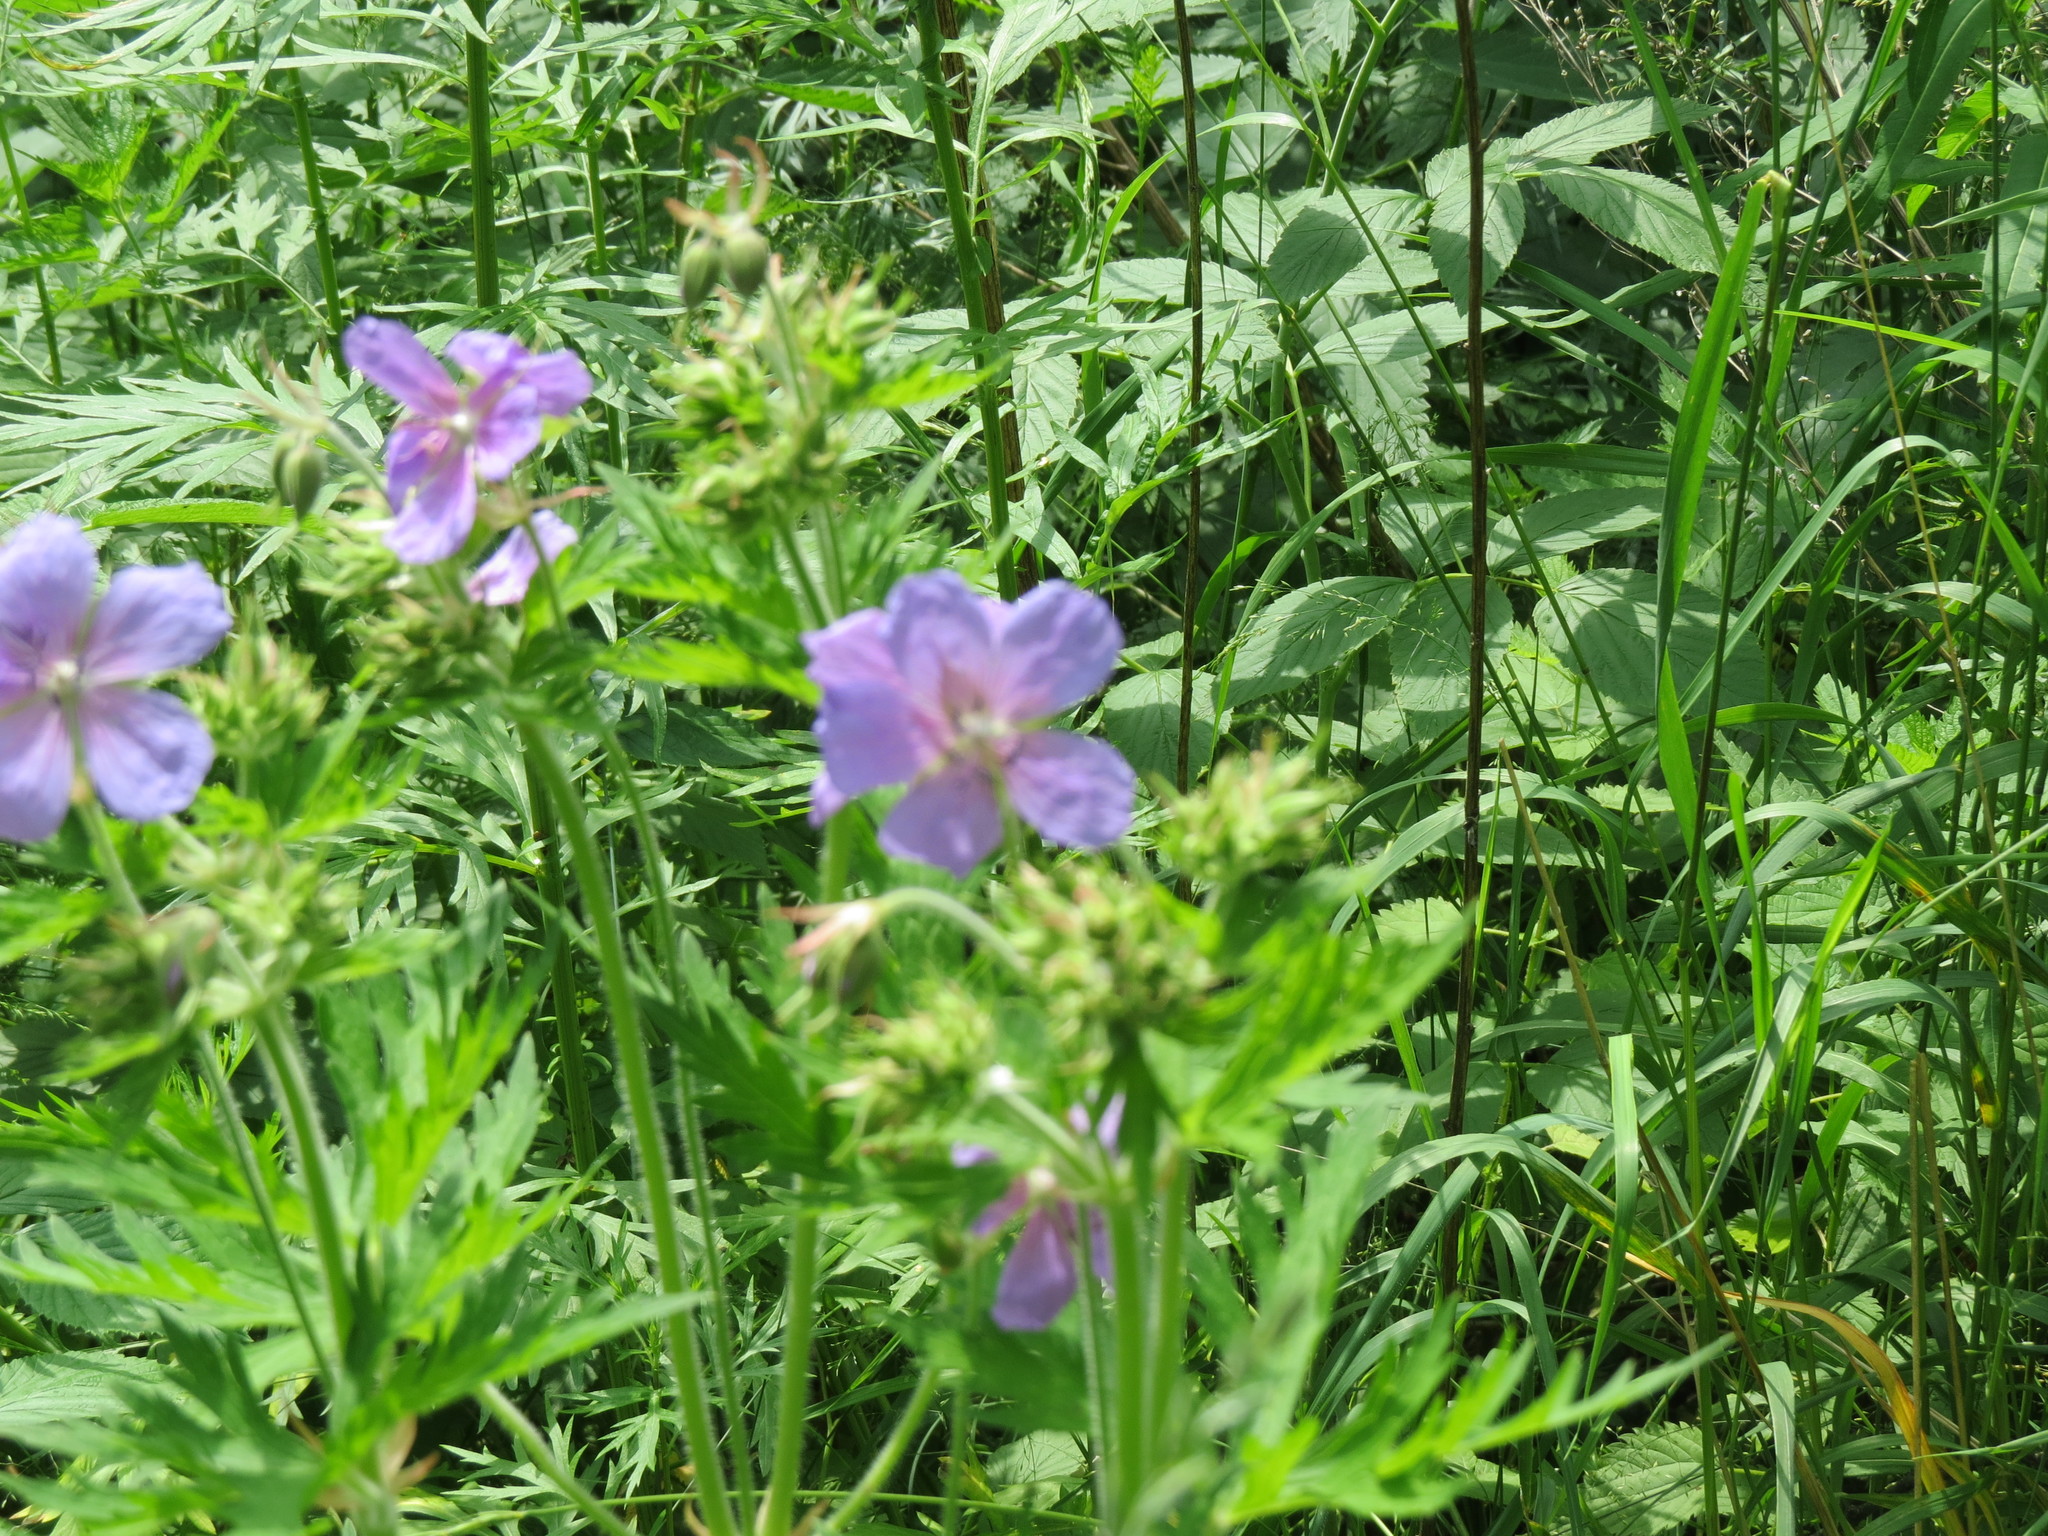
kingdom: Plantae
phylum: Tracheophyta
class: Magnoliopsida
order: Geraniales
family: Geraniaceae
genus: Geranium
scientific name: Geranium pratense
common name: Meadow crane's-bill
